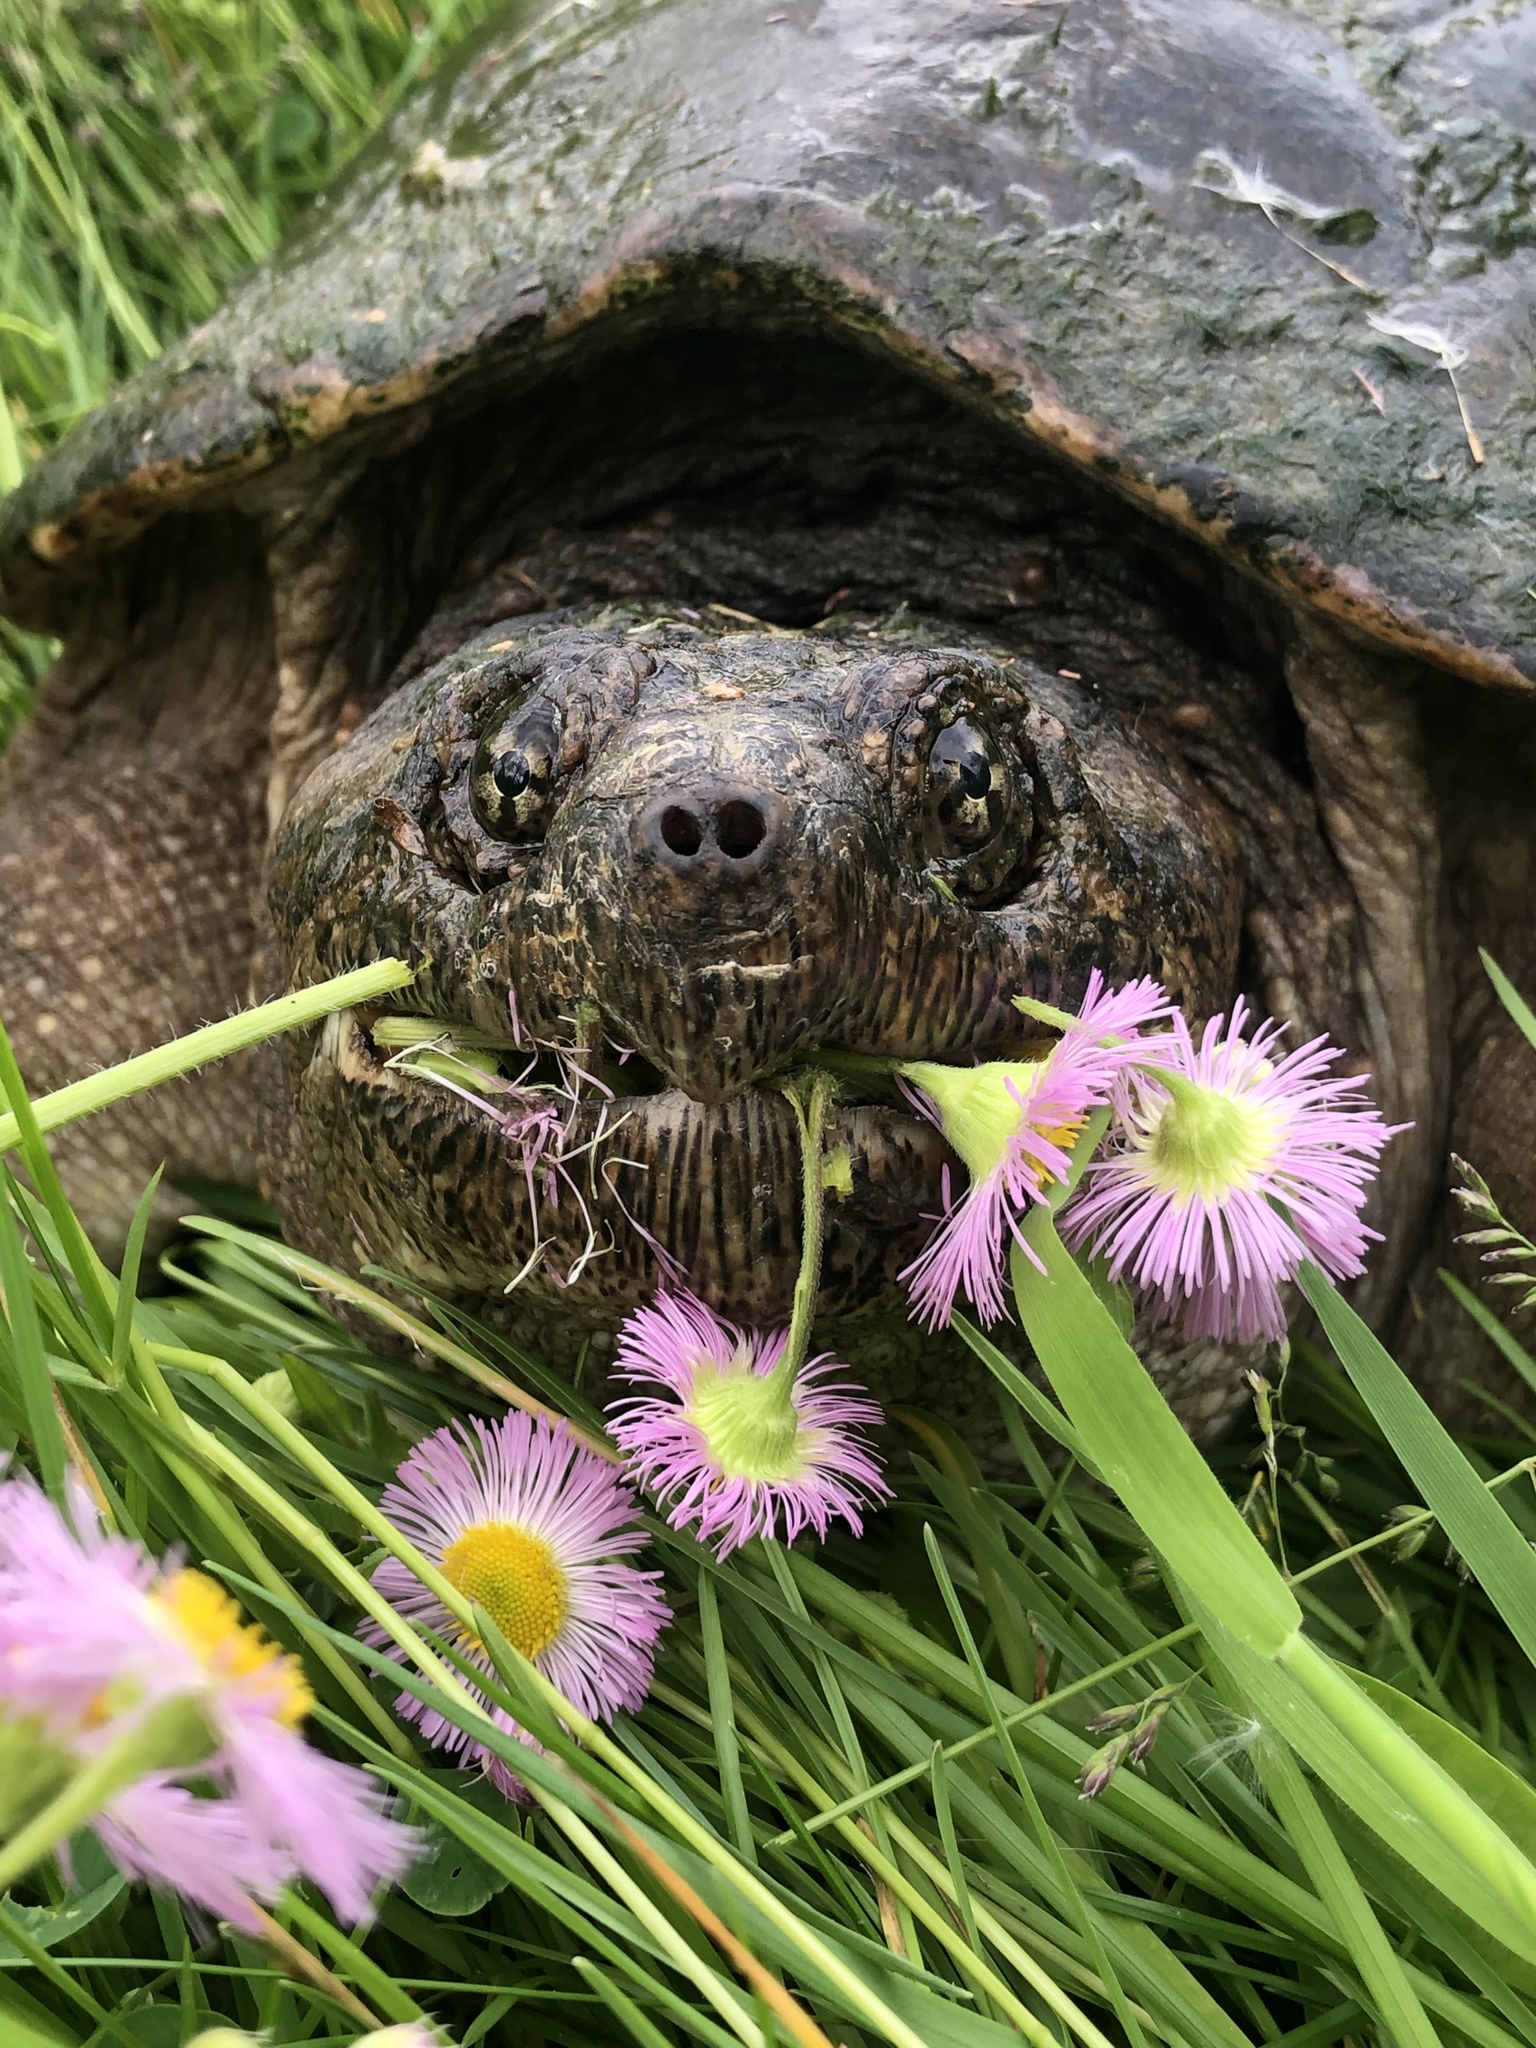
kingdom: Animalia
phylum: Chordata
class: Testudines
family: Chelydridae
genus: Chelydra
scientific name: Chelydra serpentina
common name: Common snapping turtle
